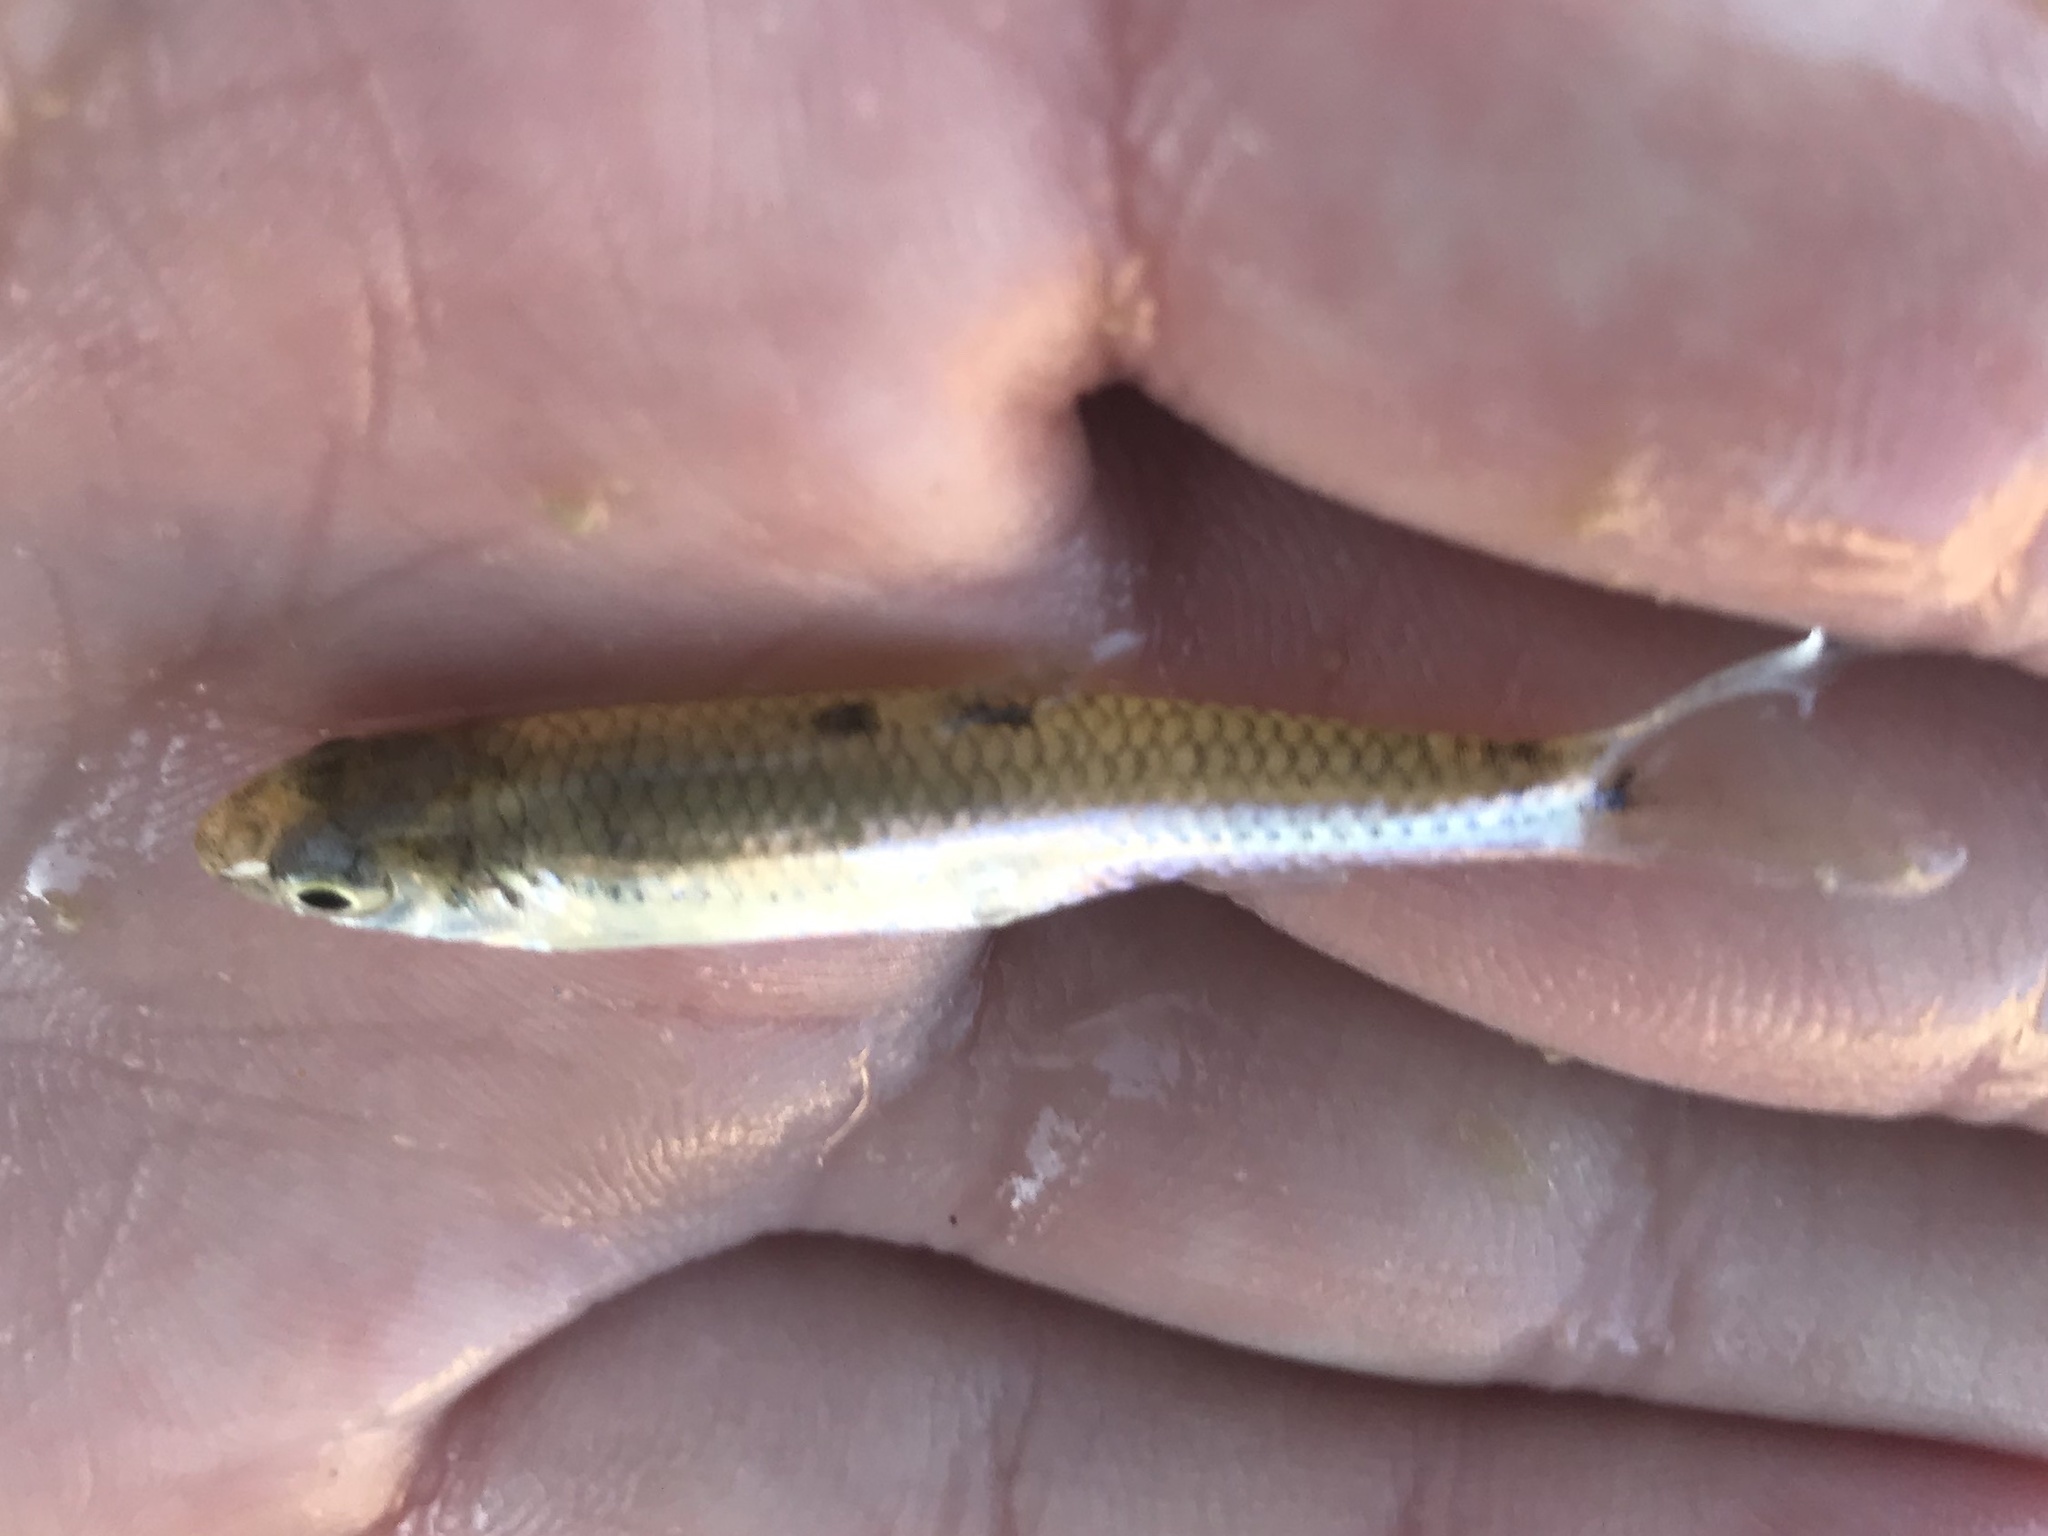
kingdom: Animalia
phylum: Chordata
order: Cypriniformes
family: Cyprinidae
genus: Notropis
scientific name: Notropis
